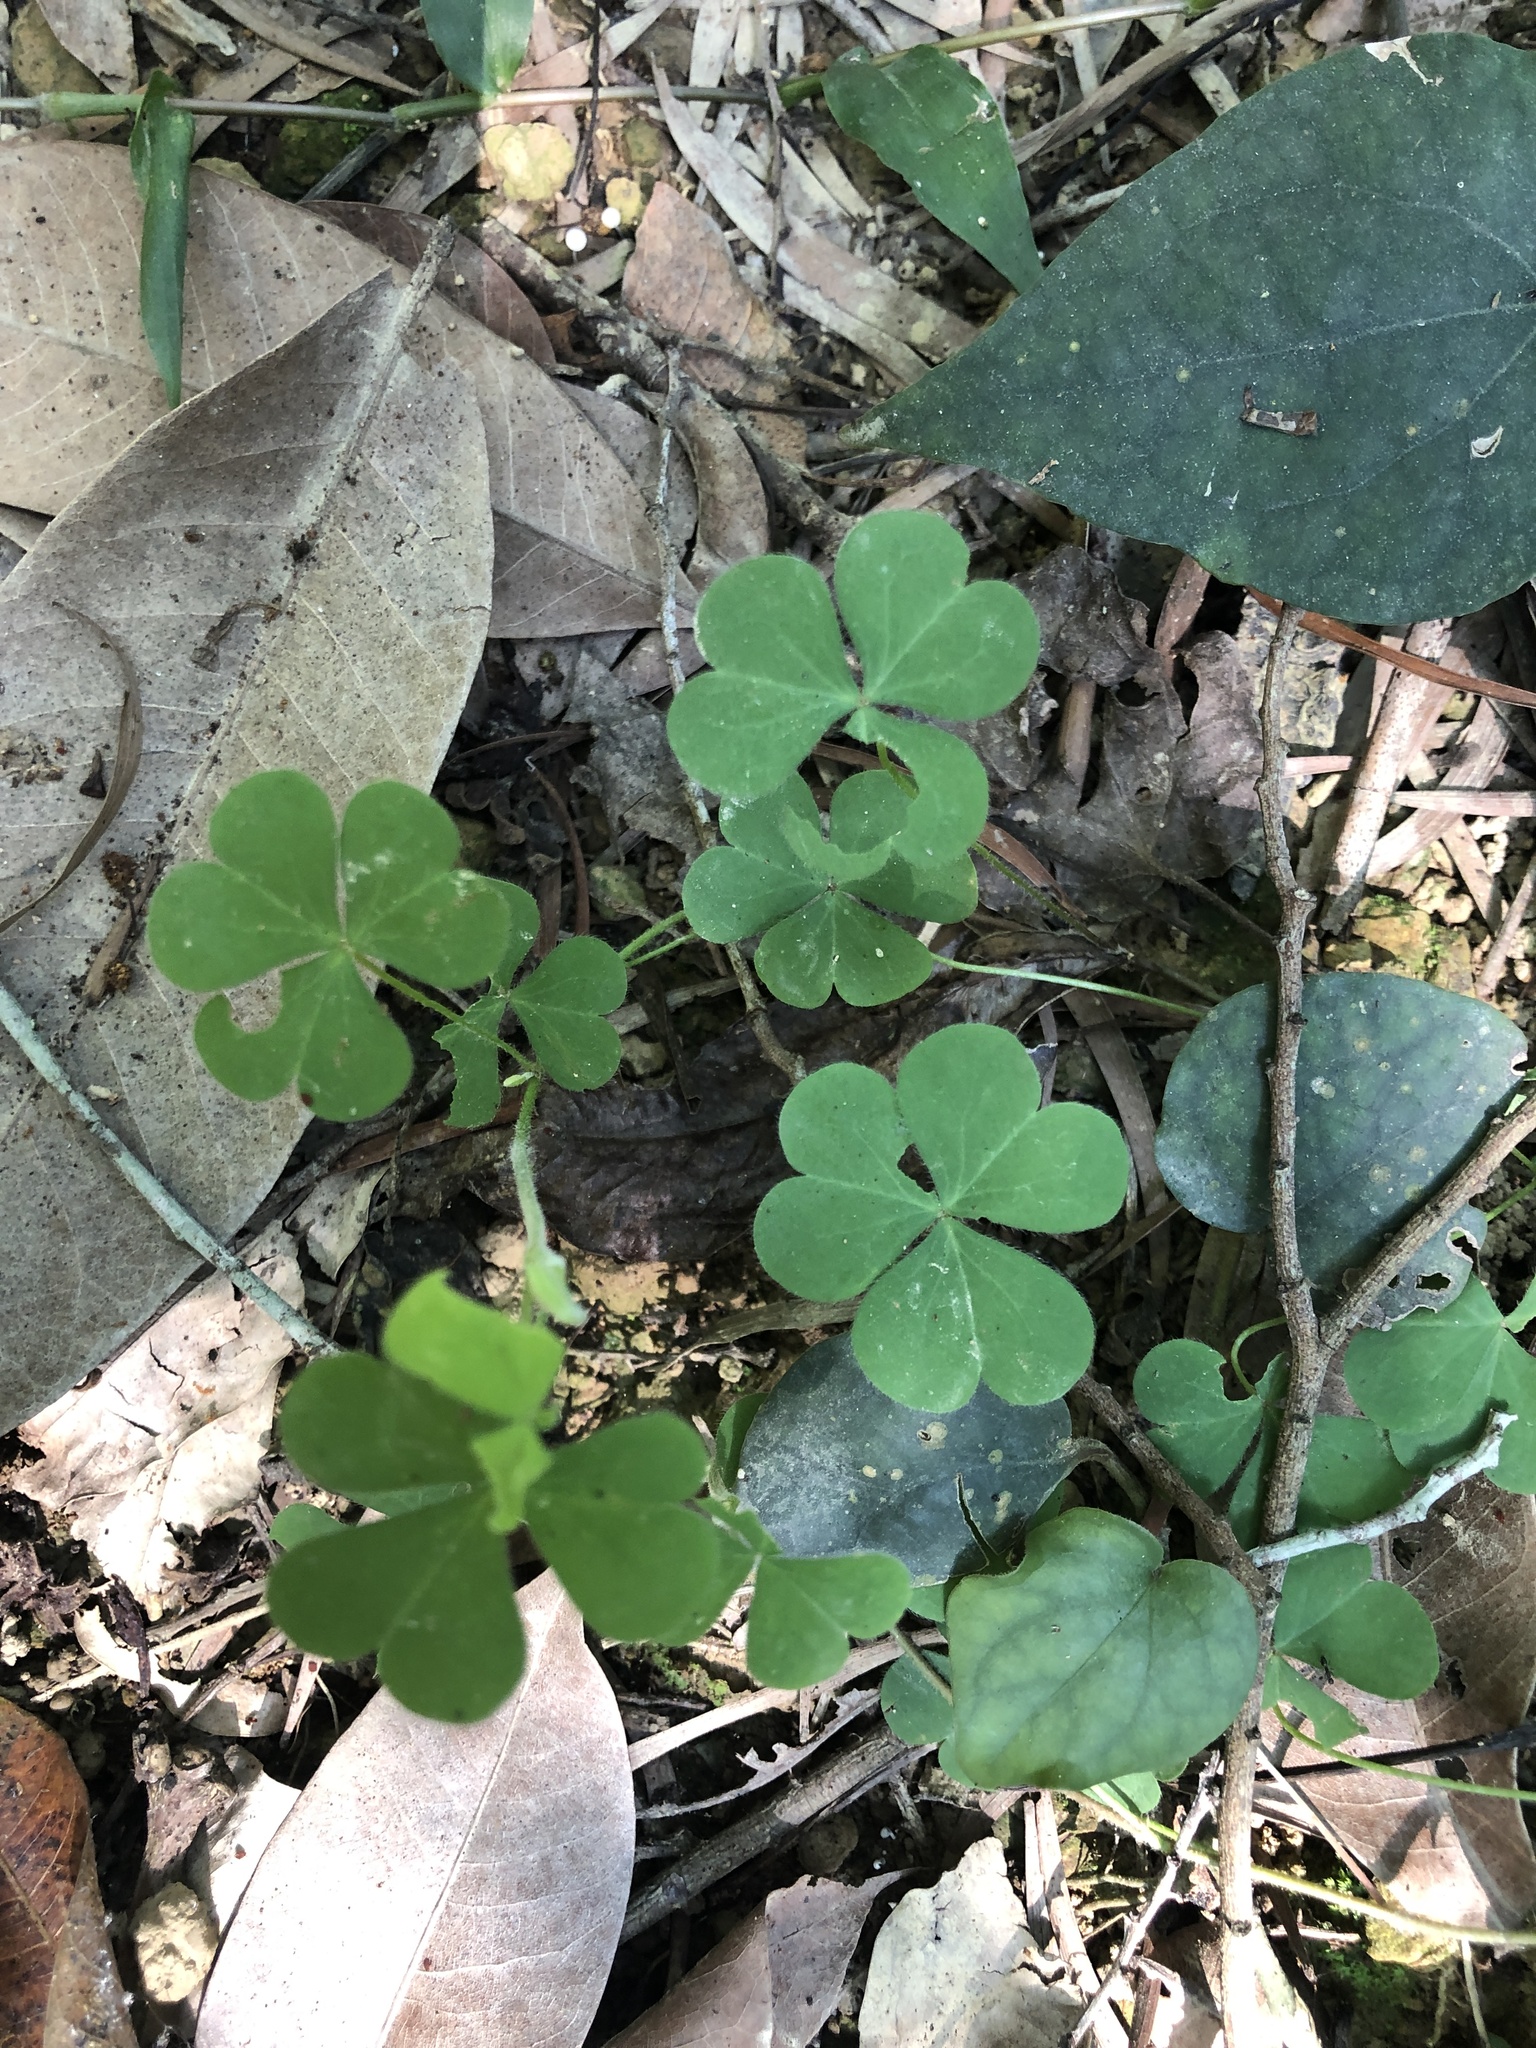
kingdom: Plantae
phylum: Tracheophyta
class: Magnoliopsida
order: Oxalidales
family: Oxalidaceae
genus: Oxalis
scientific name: Oxalis corniculata
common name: Procumbent yellow-sorrel
